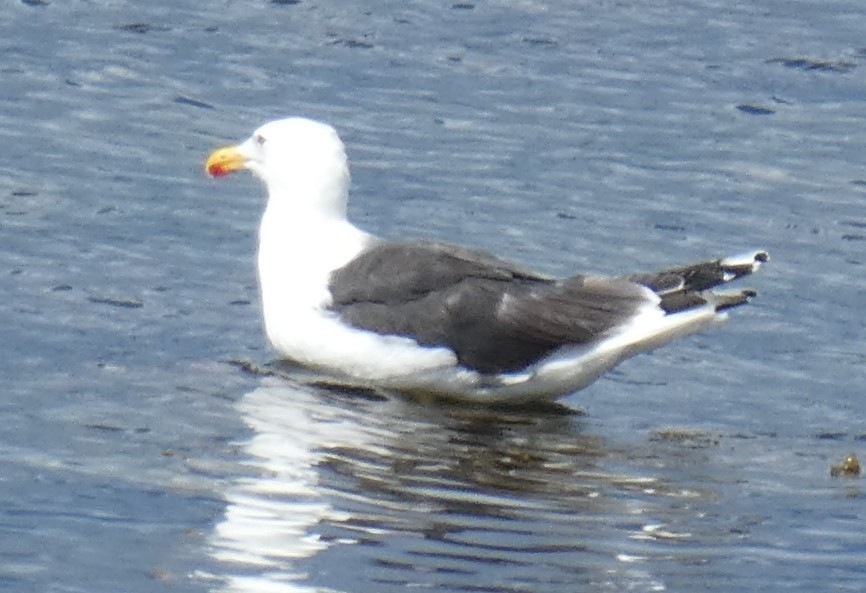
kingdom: Animalia
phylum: Chordata
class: Aves
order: Charadriiformes
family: Laridae
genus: Larus
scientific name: Larus marinus
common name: Great black-backed gull
